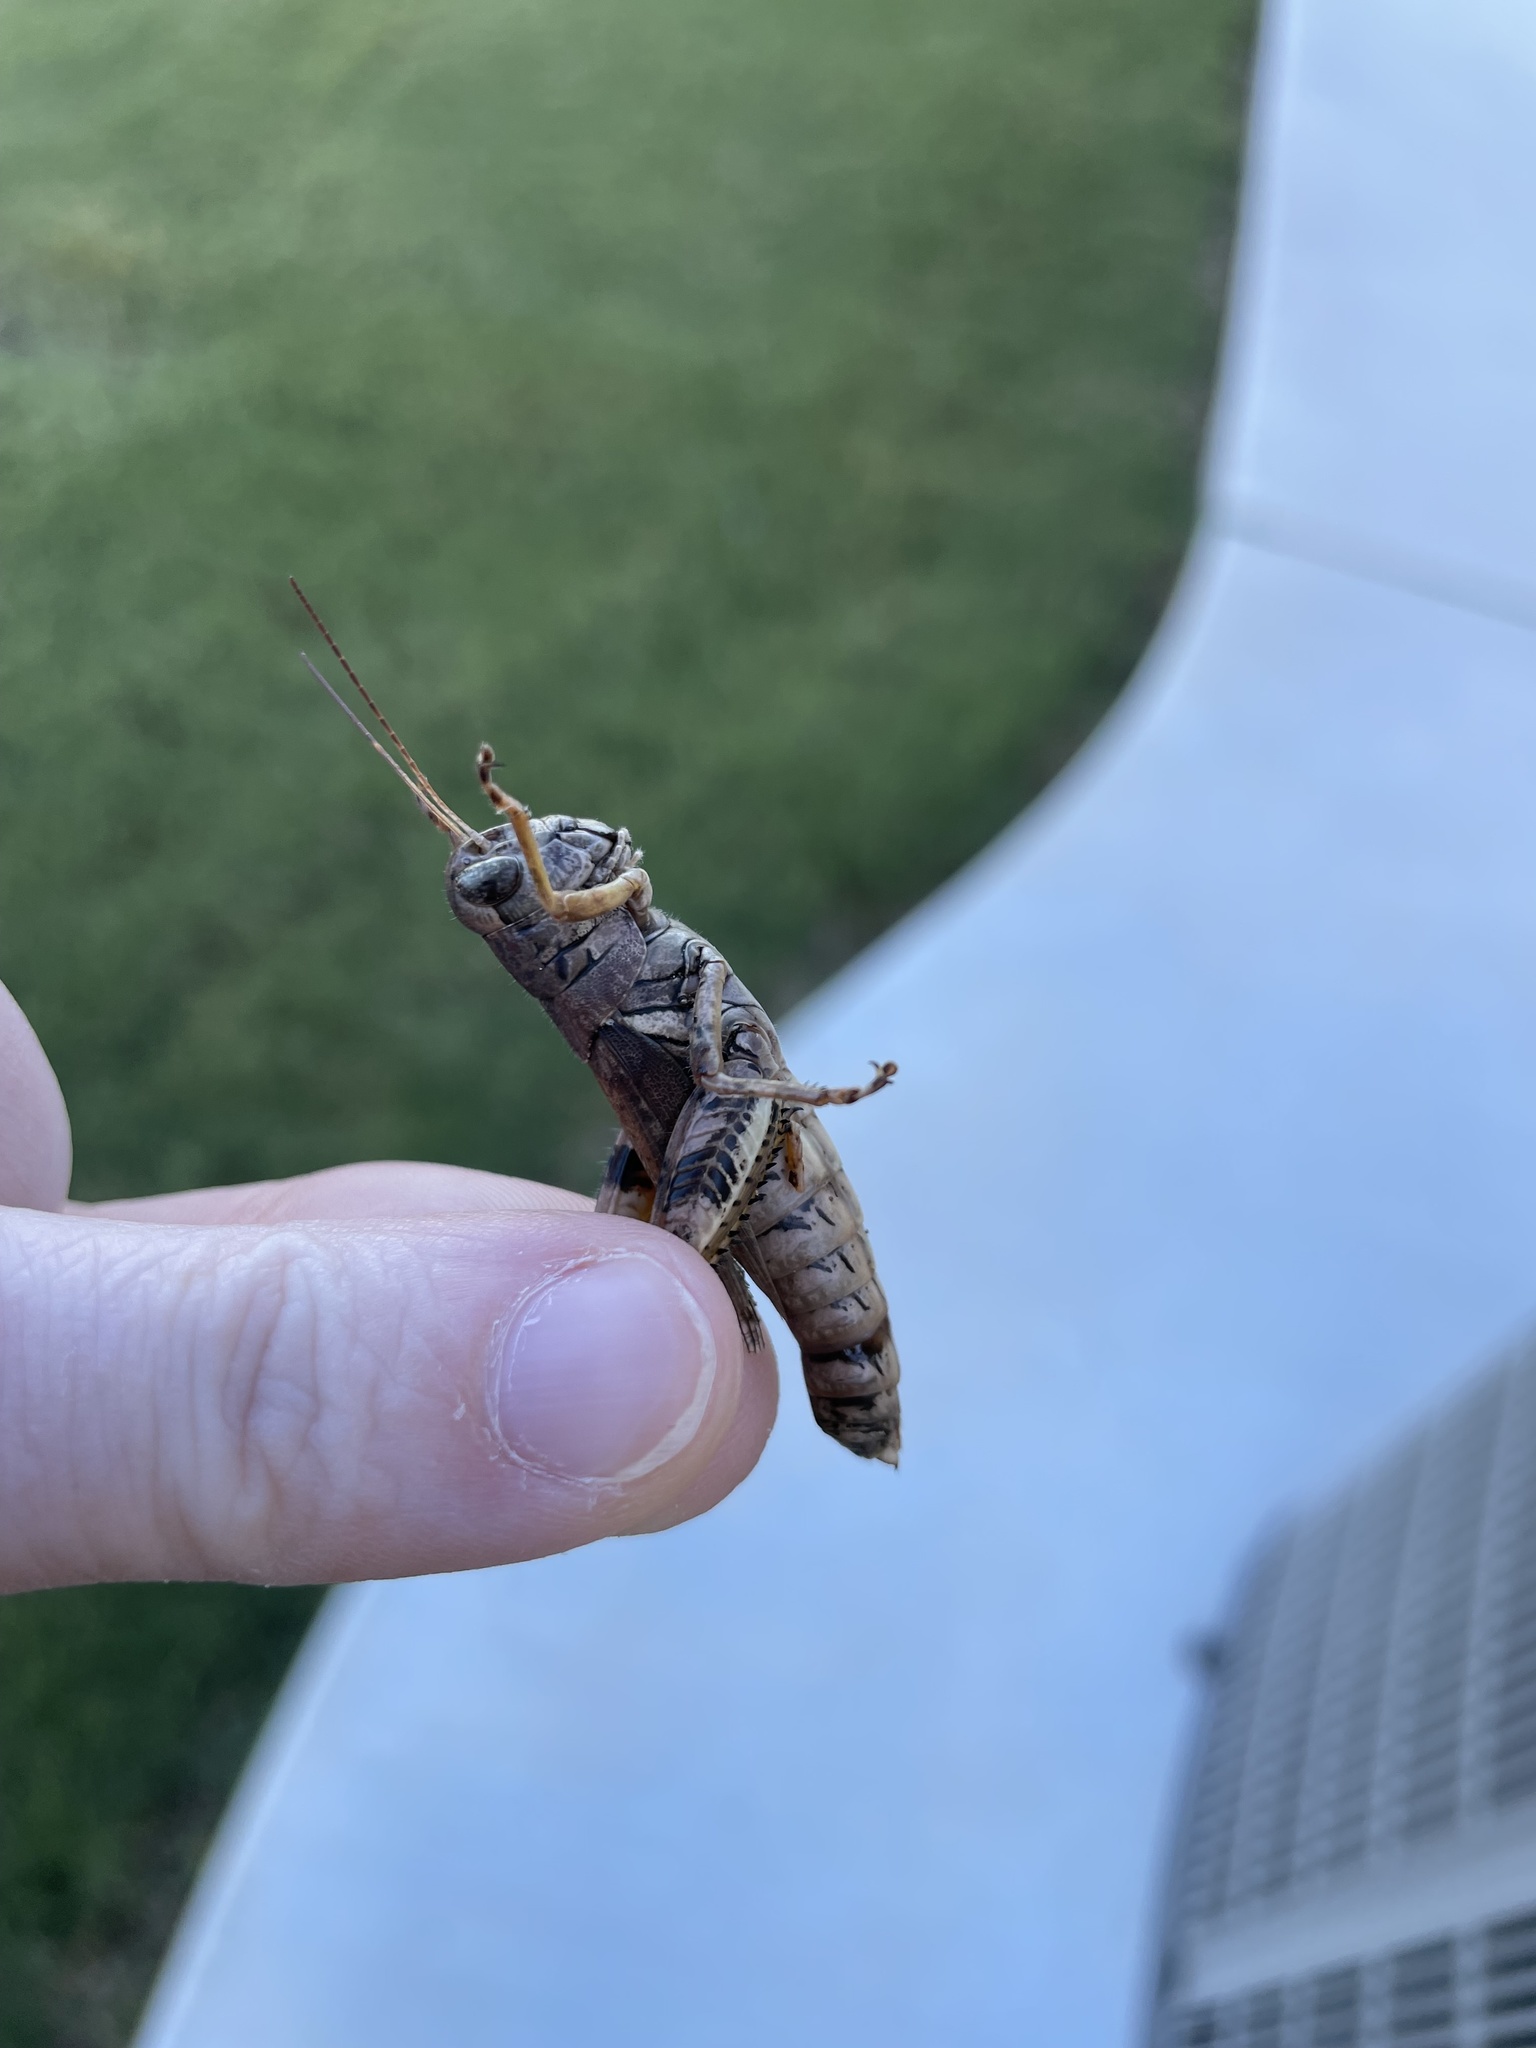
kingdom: Animalia
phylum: Arthropoda
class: Insecta
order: Orthoptera
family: Acrididae
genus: Melanoplus
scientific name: Melanoplus ponderosus
